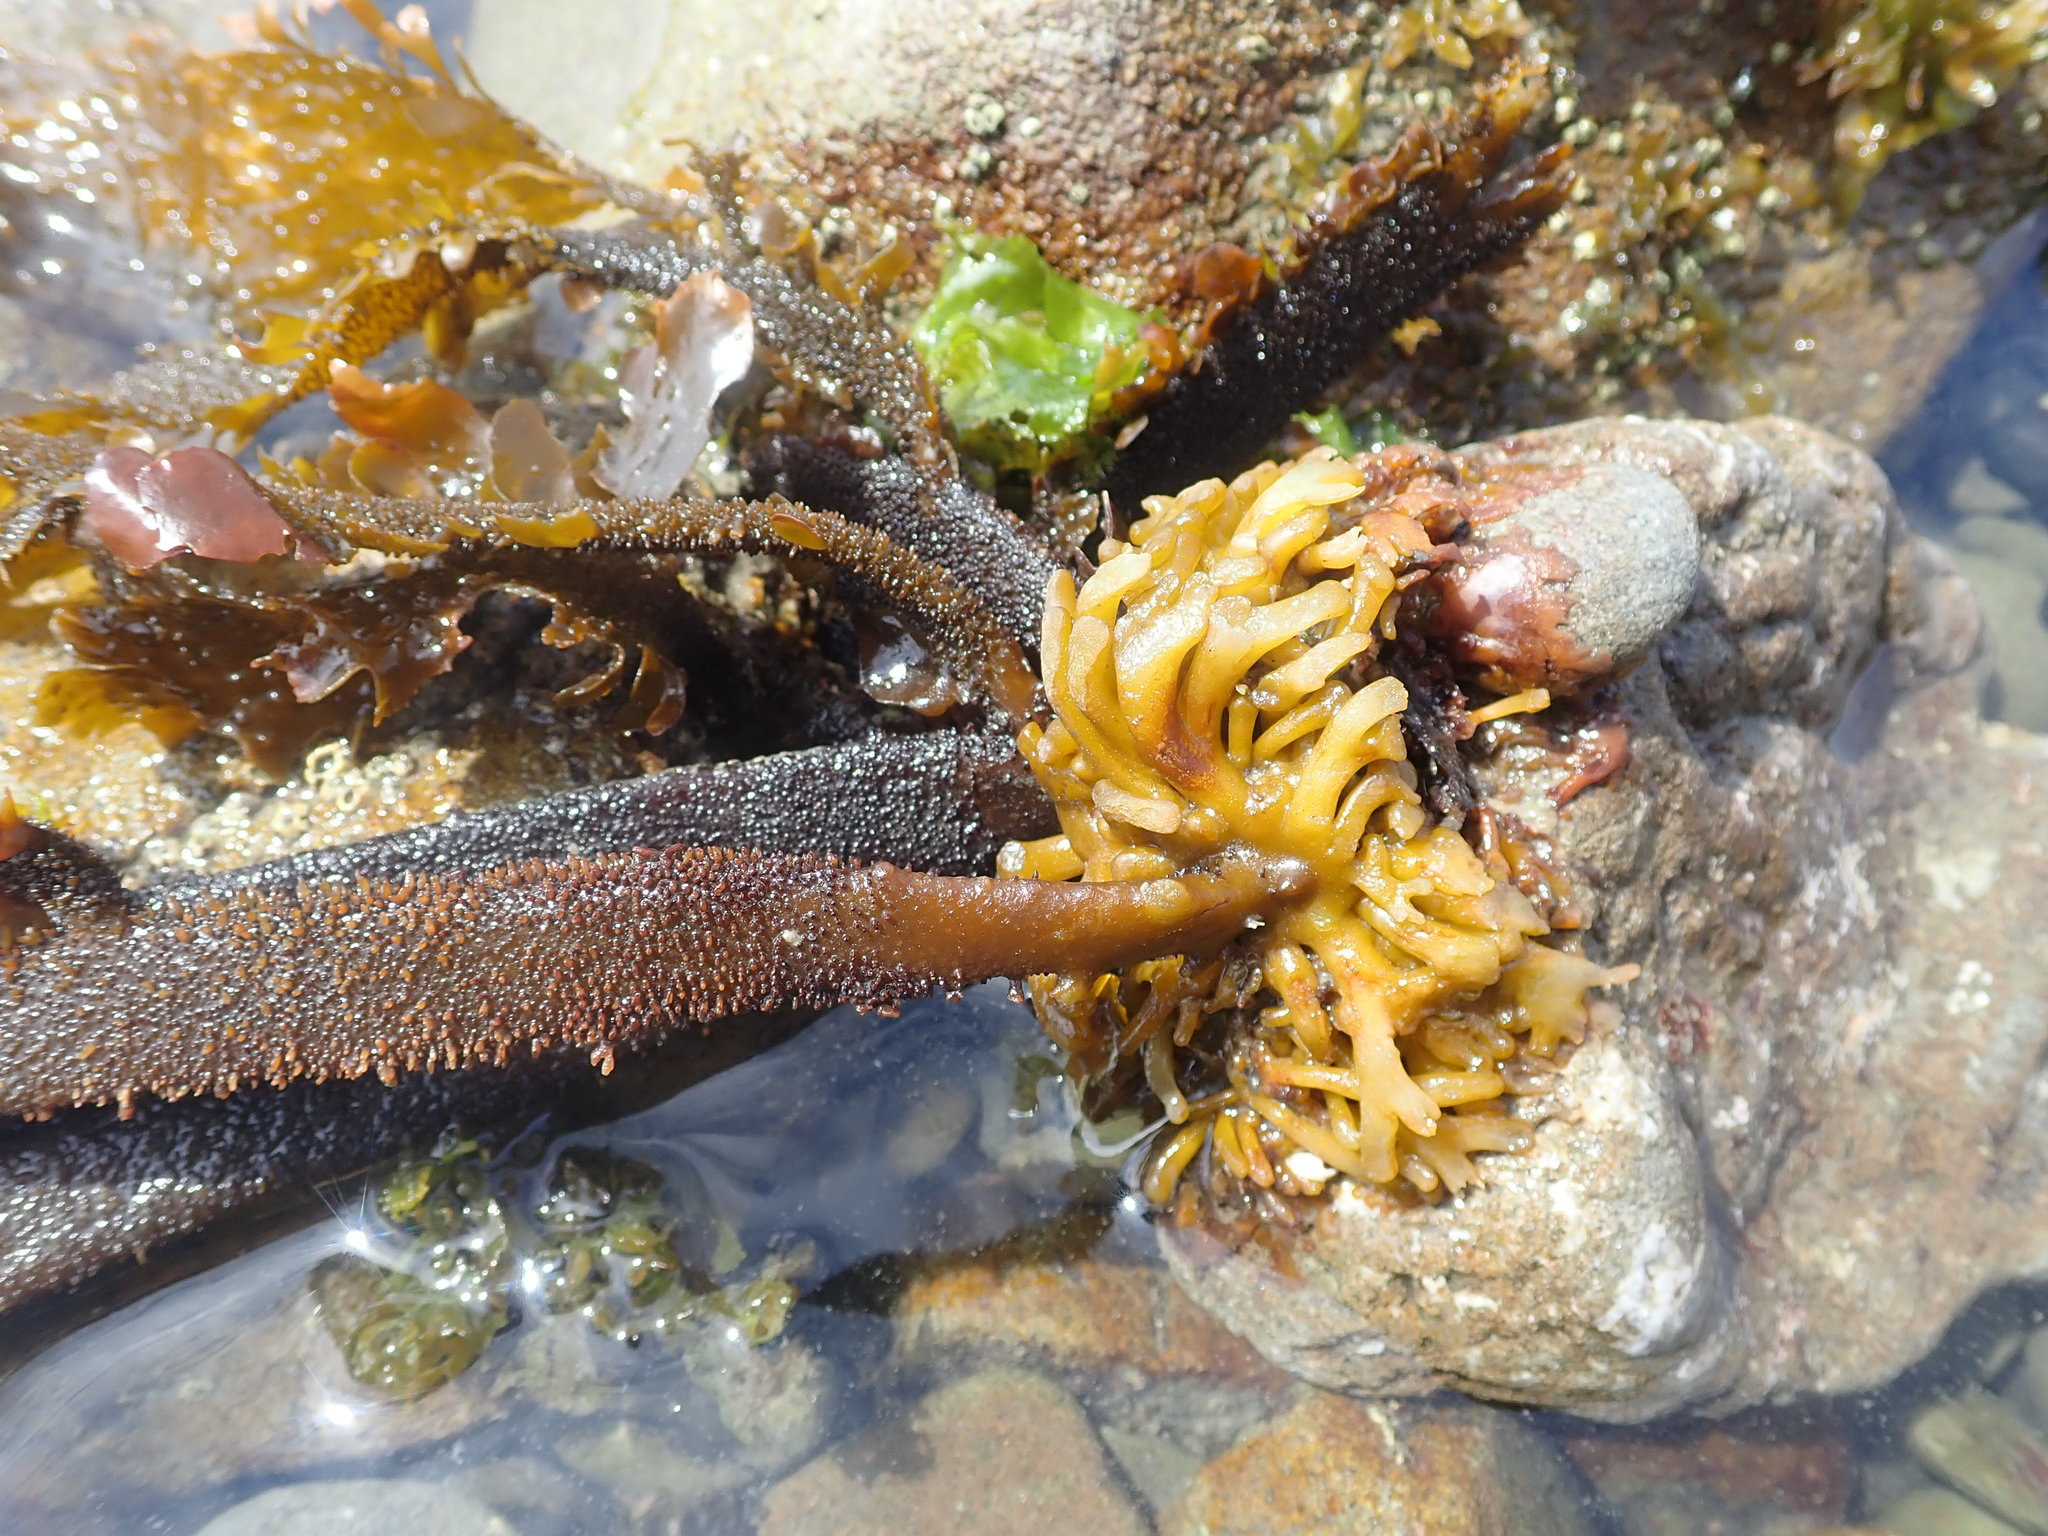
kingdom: Chromista
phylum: Ochrophyta
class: Phaeophyceae
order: Laminariales
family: Lessoniaceae
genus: Egregia
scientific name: Egregia menziesii
